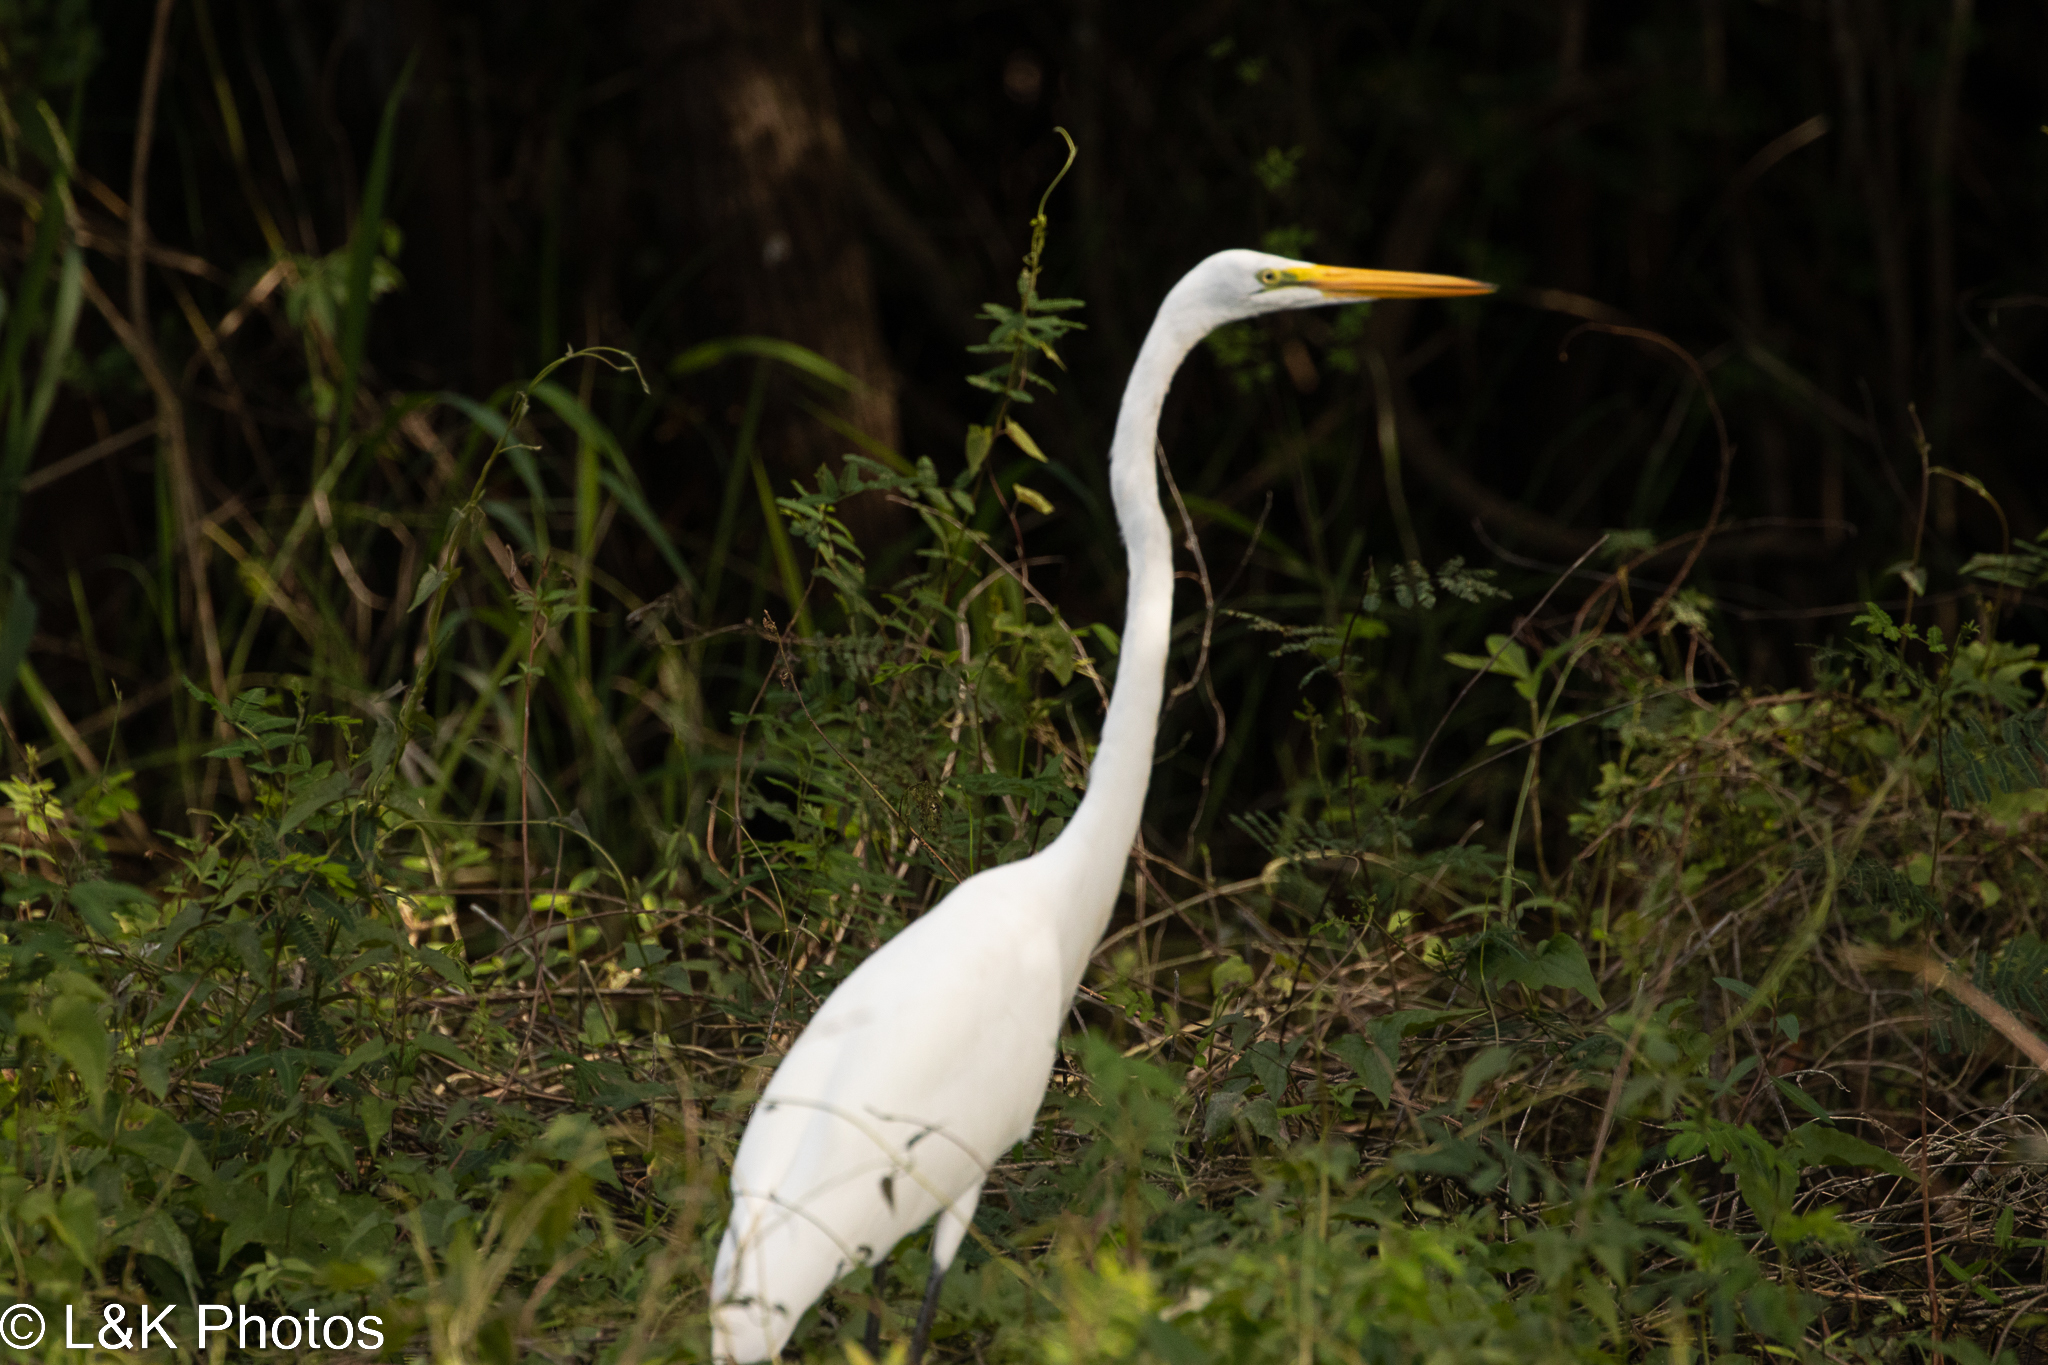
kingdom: Animalia
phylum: Chordata
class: Aves
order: Pelecaniformes
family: Ardeidae
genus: Ardea
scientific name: Ardea alba
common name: Great egret
